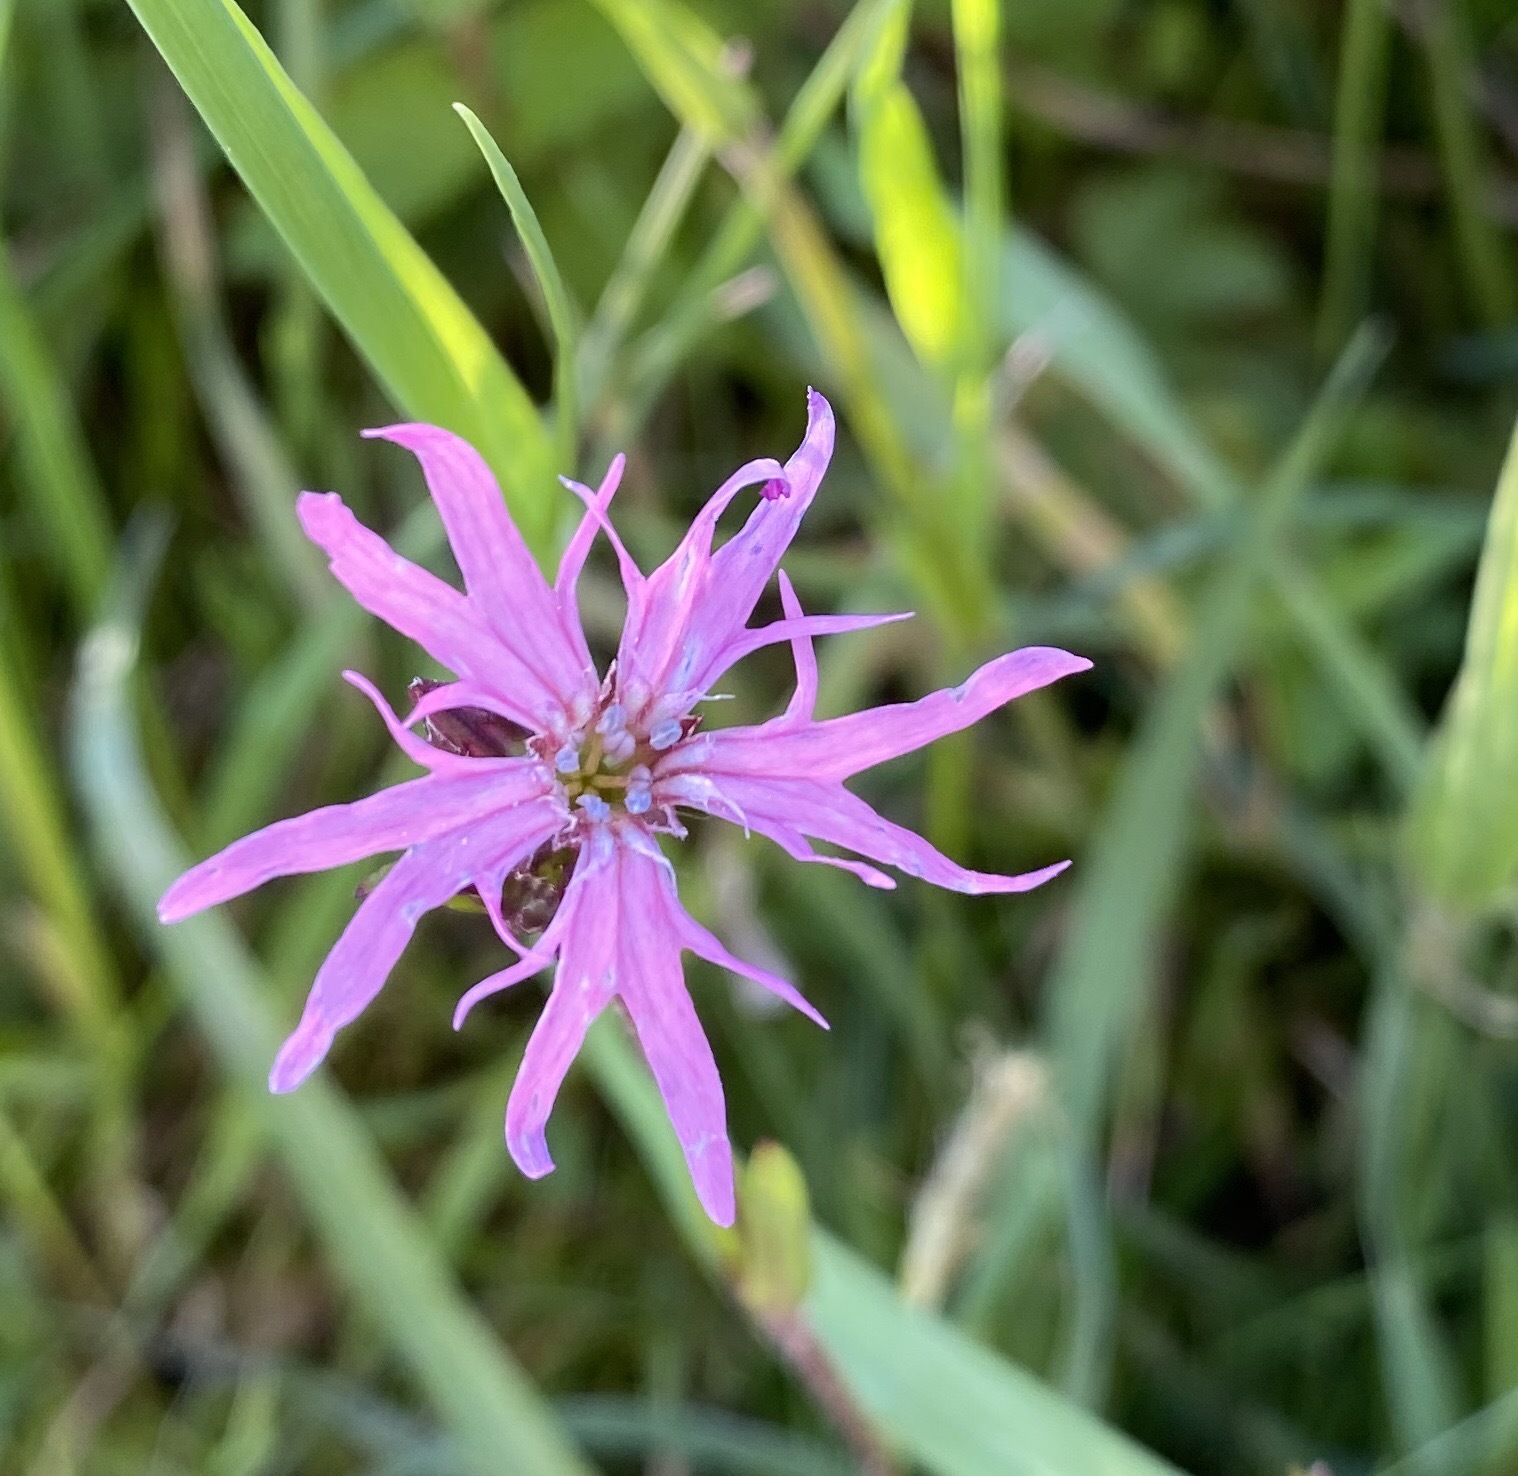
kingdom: Plantae
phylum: Tracheophyta
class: Magnoliopsida
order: Caryophyllales
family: Caryophyllaceae
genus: Silene
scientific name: Silene flos-cuculi
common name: Ragged-robin
